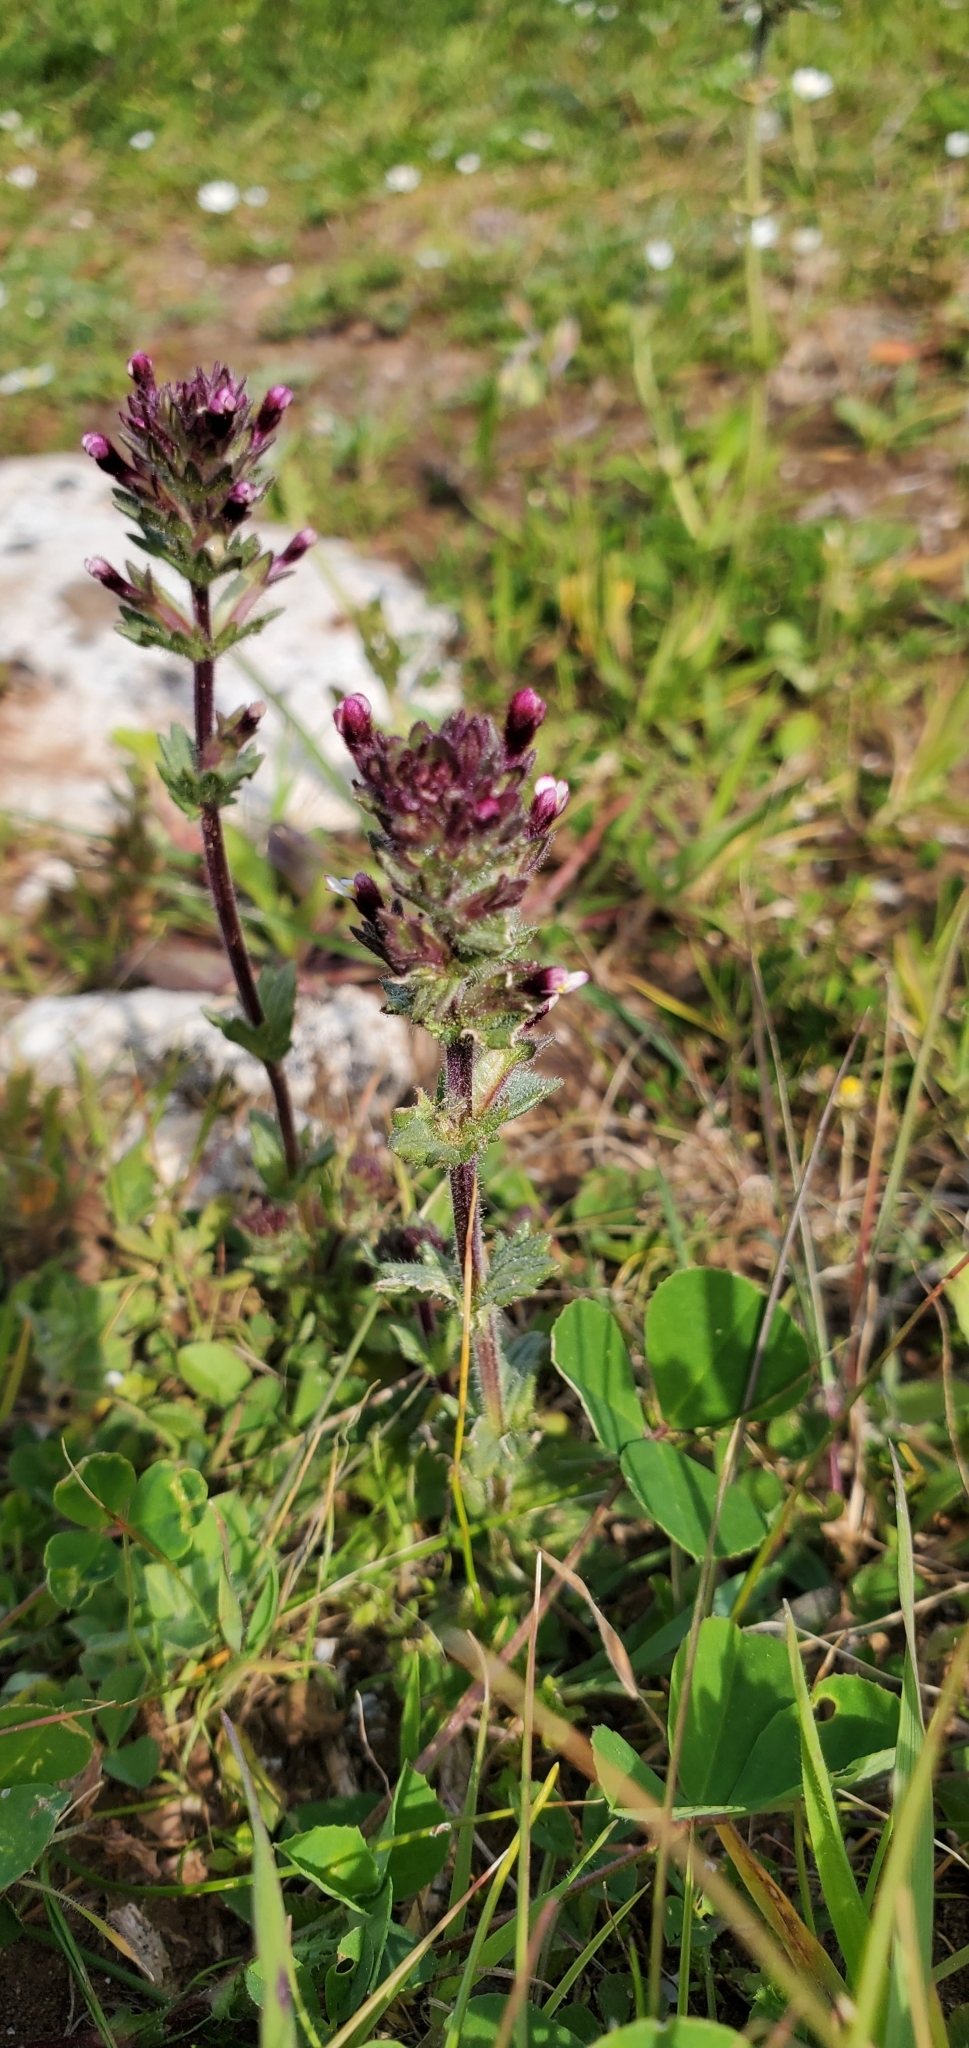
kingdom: Plantae
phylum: Tracheophyta
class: Magnoliopsida
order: Lamiales
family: Orobanchaceae
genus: Parentucellia
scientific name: Parentucellia latifolia
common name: Broadleaf glandweed
